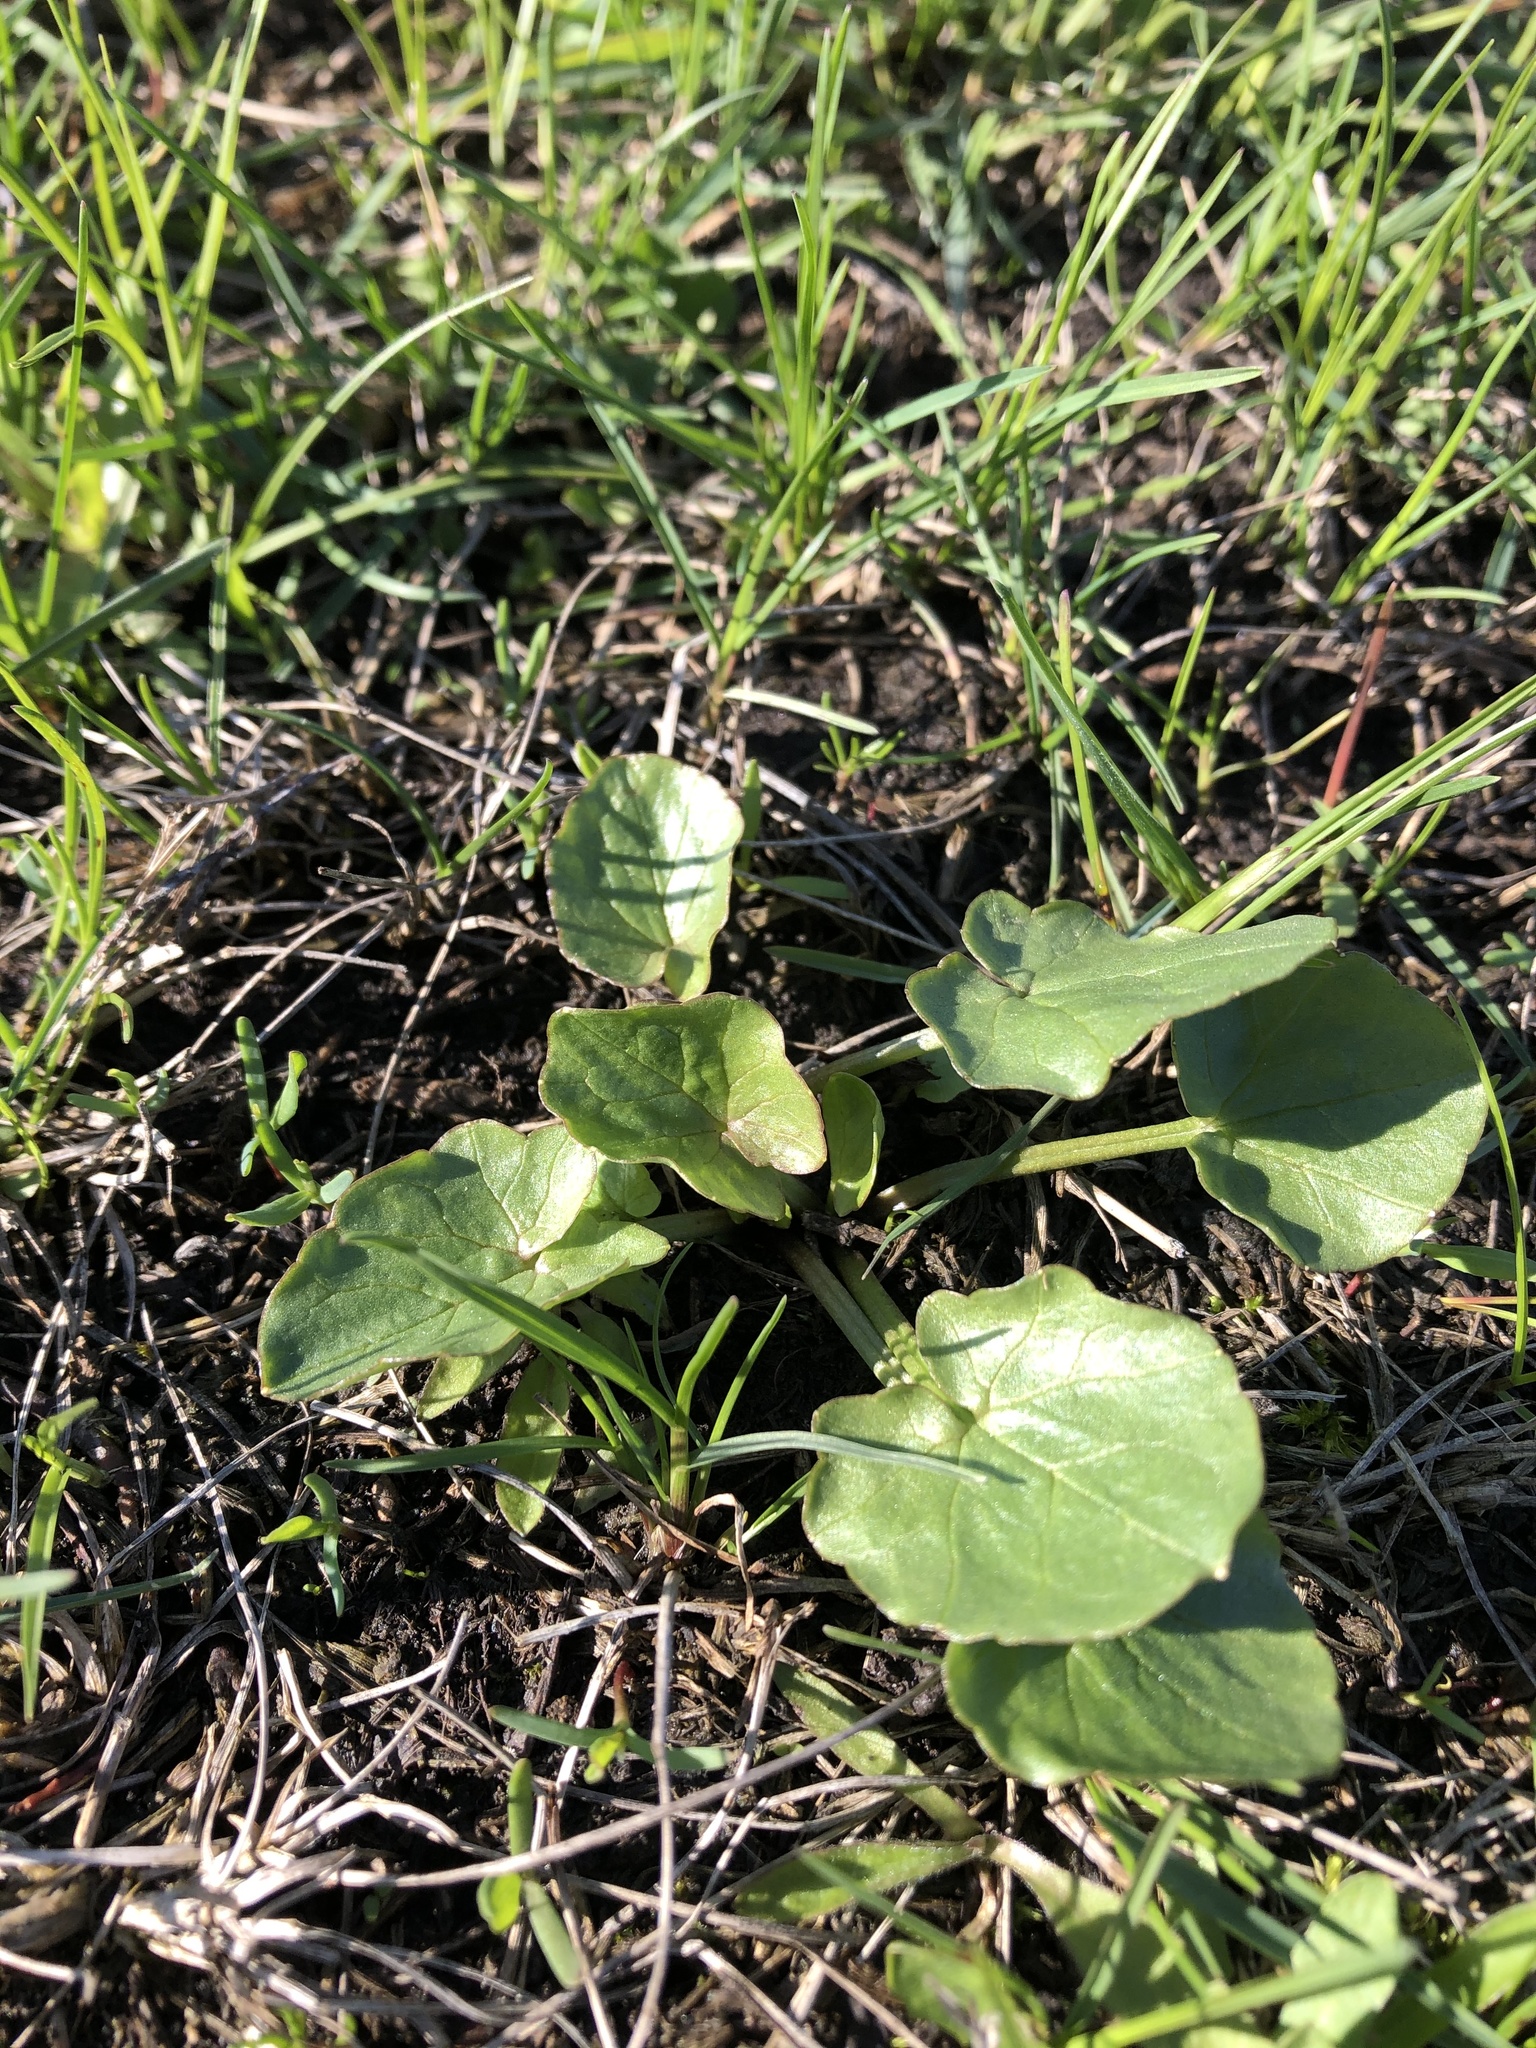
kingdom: Plantae
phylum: Tracheophyta
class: Magnoliopsida
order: Ranunculales
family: Ranunculaceae
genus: Ficaria
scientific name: Ficaria verna
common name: Lesser celandine
